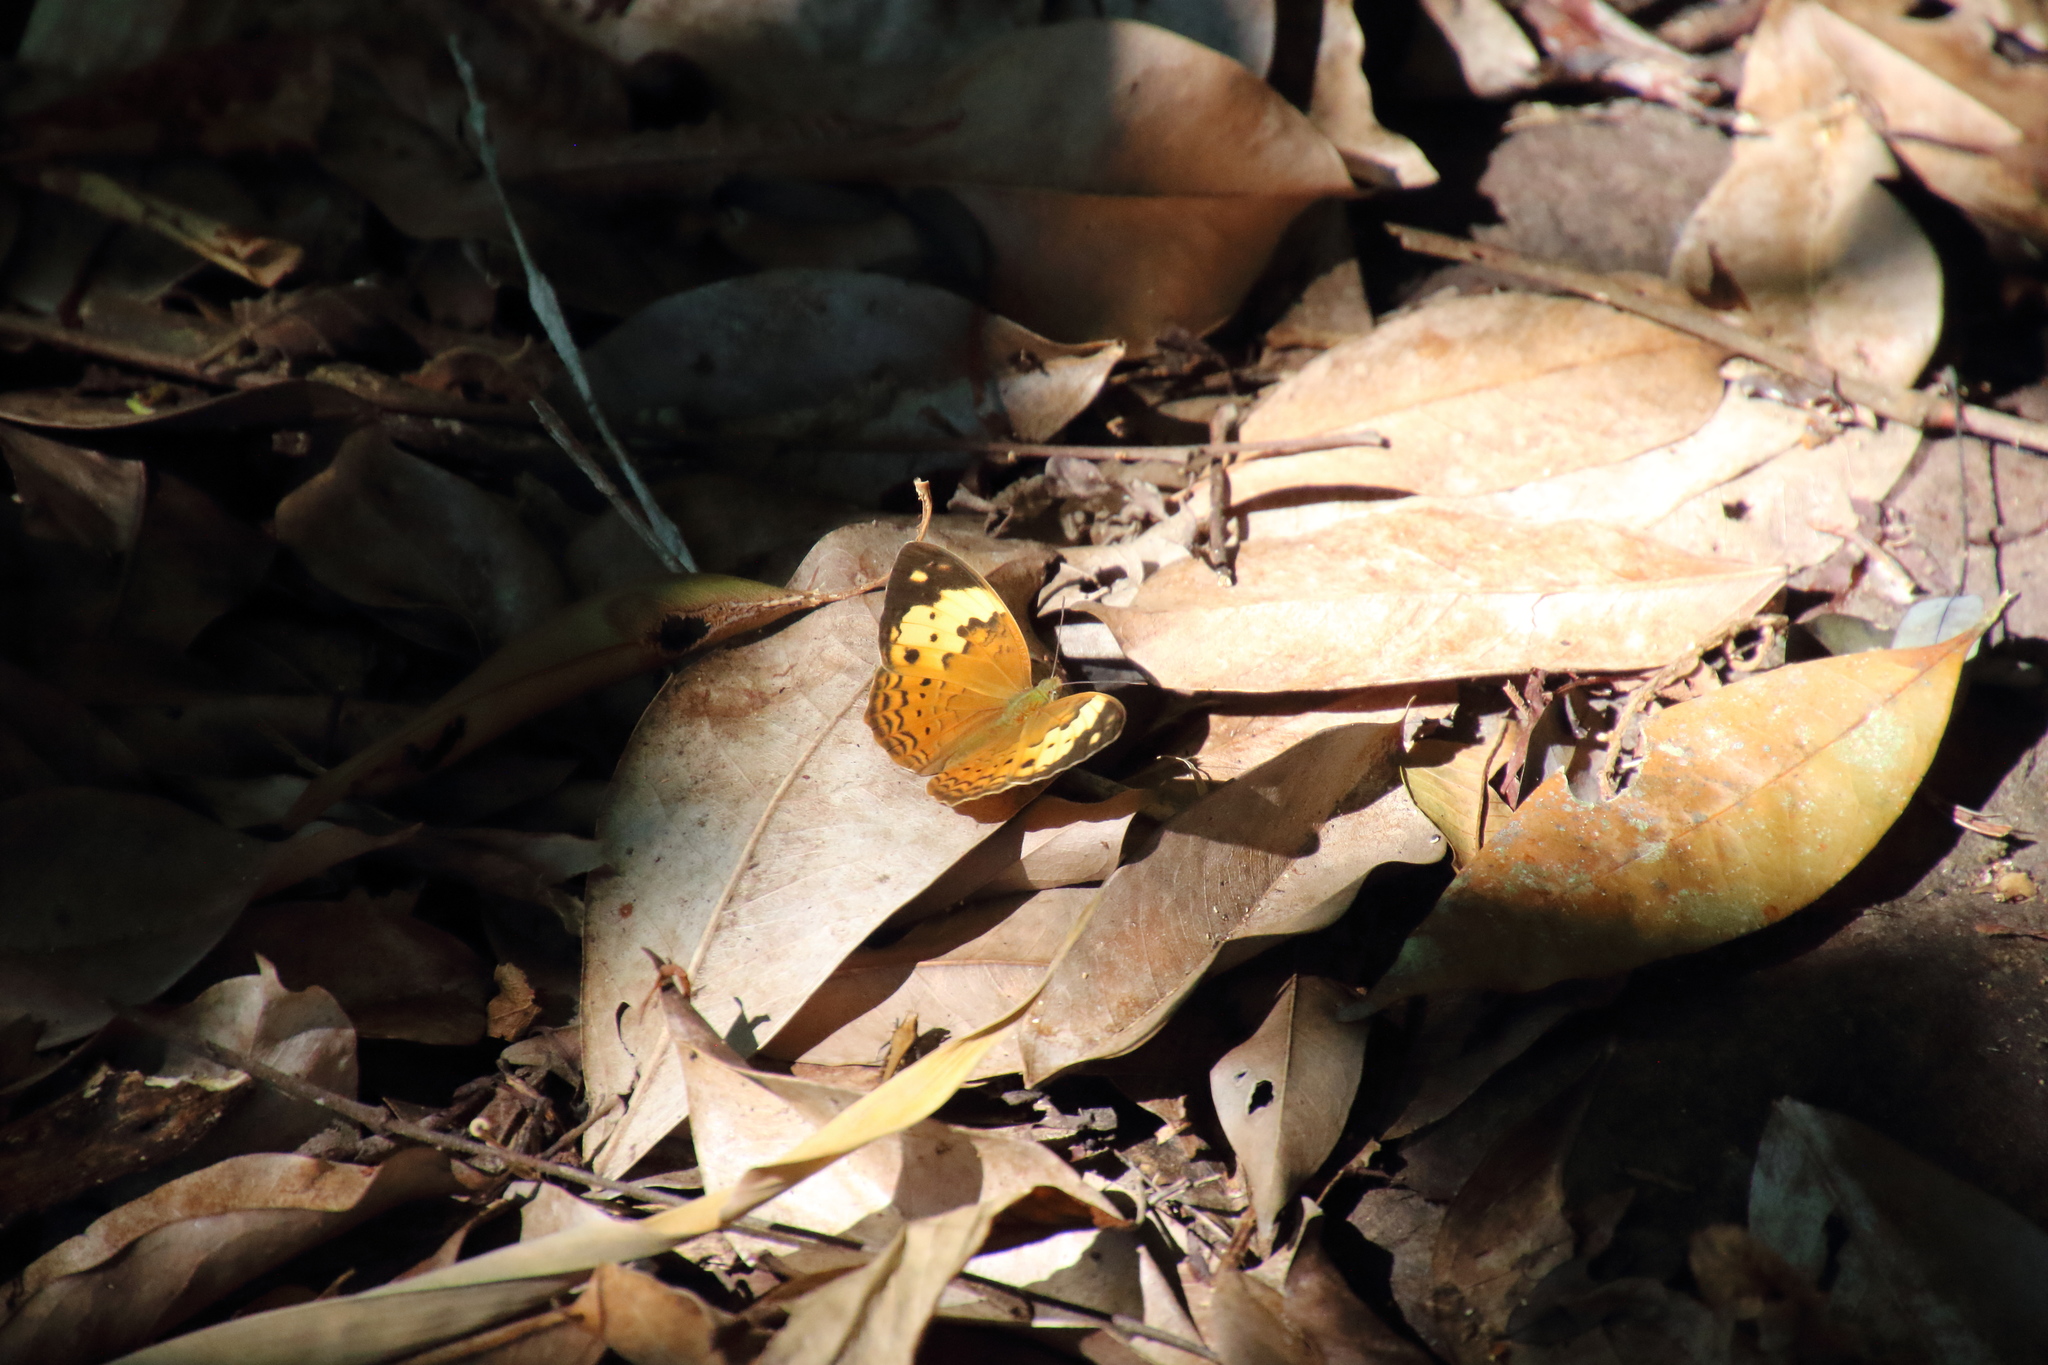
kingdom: Animalia
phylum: Arthropoda
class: Insecta
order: Lepidoptera
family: Nymphalidae
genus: Cupha
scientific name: Cupha erymanthis
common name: Rustic
